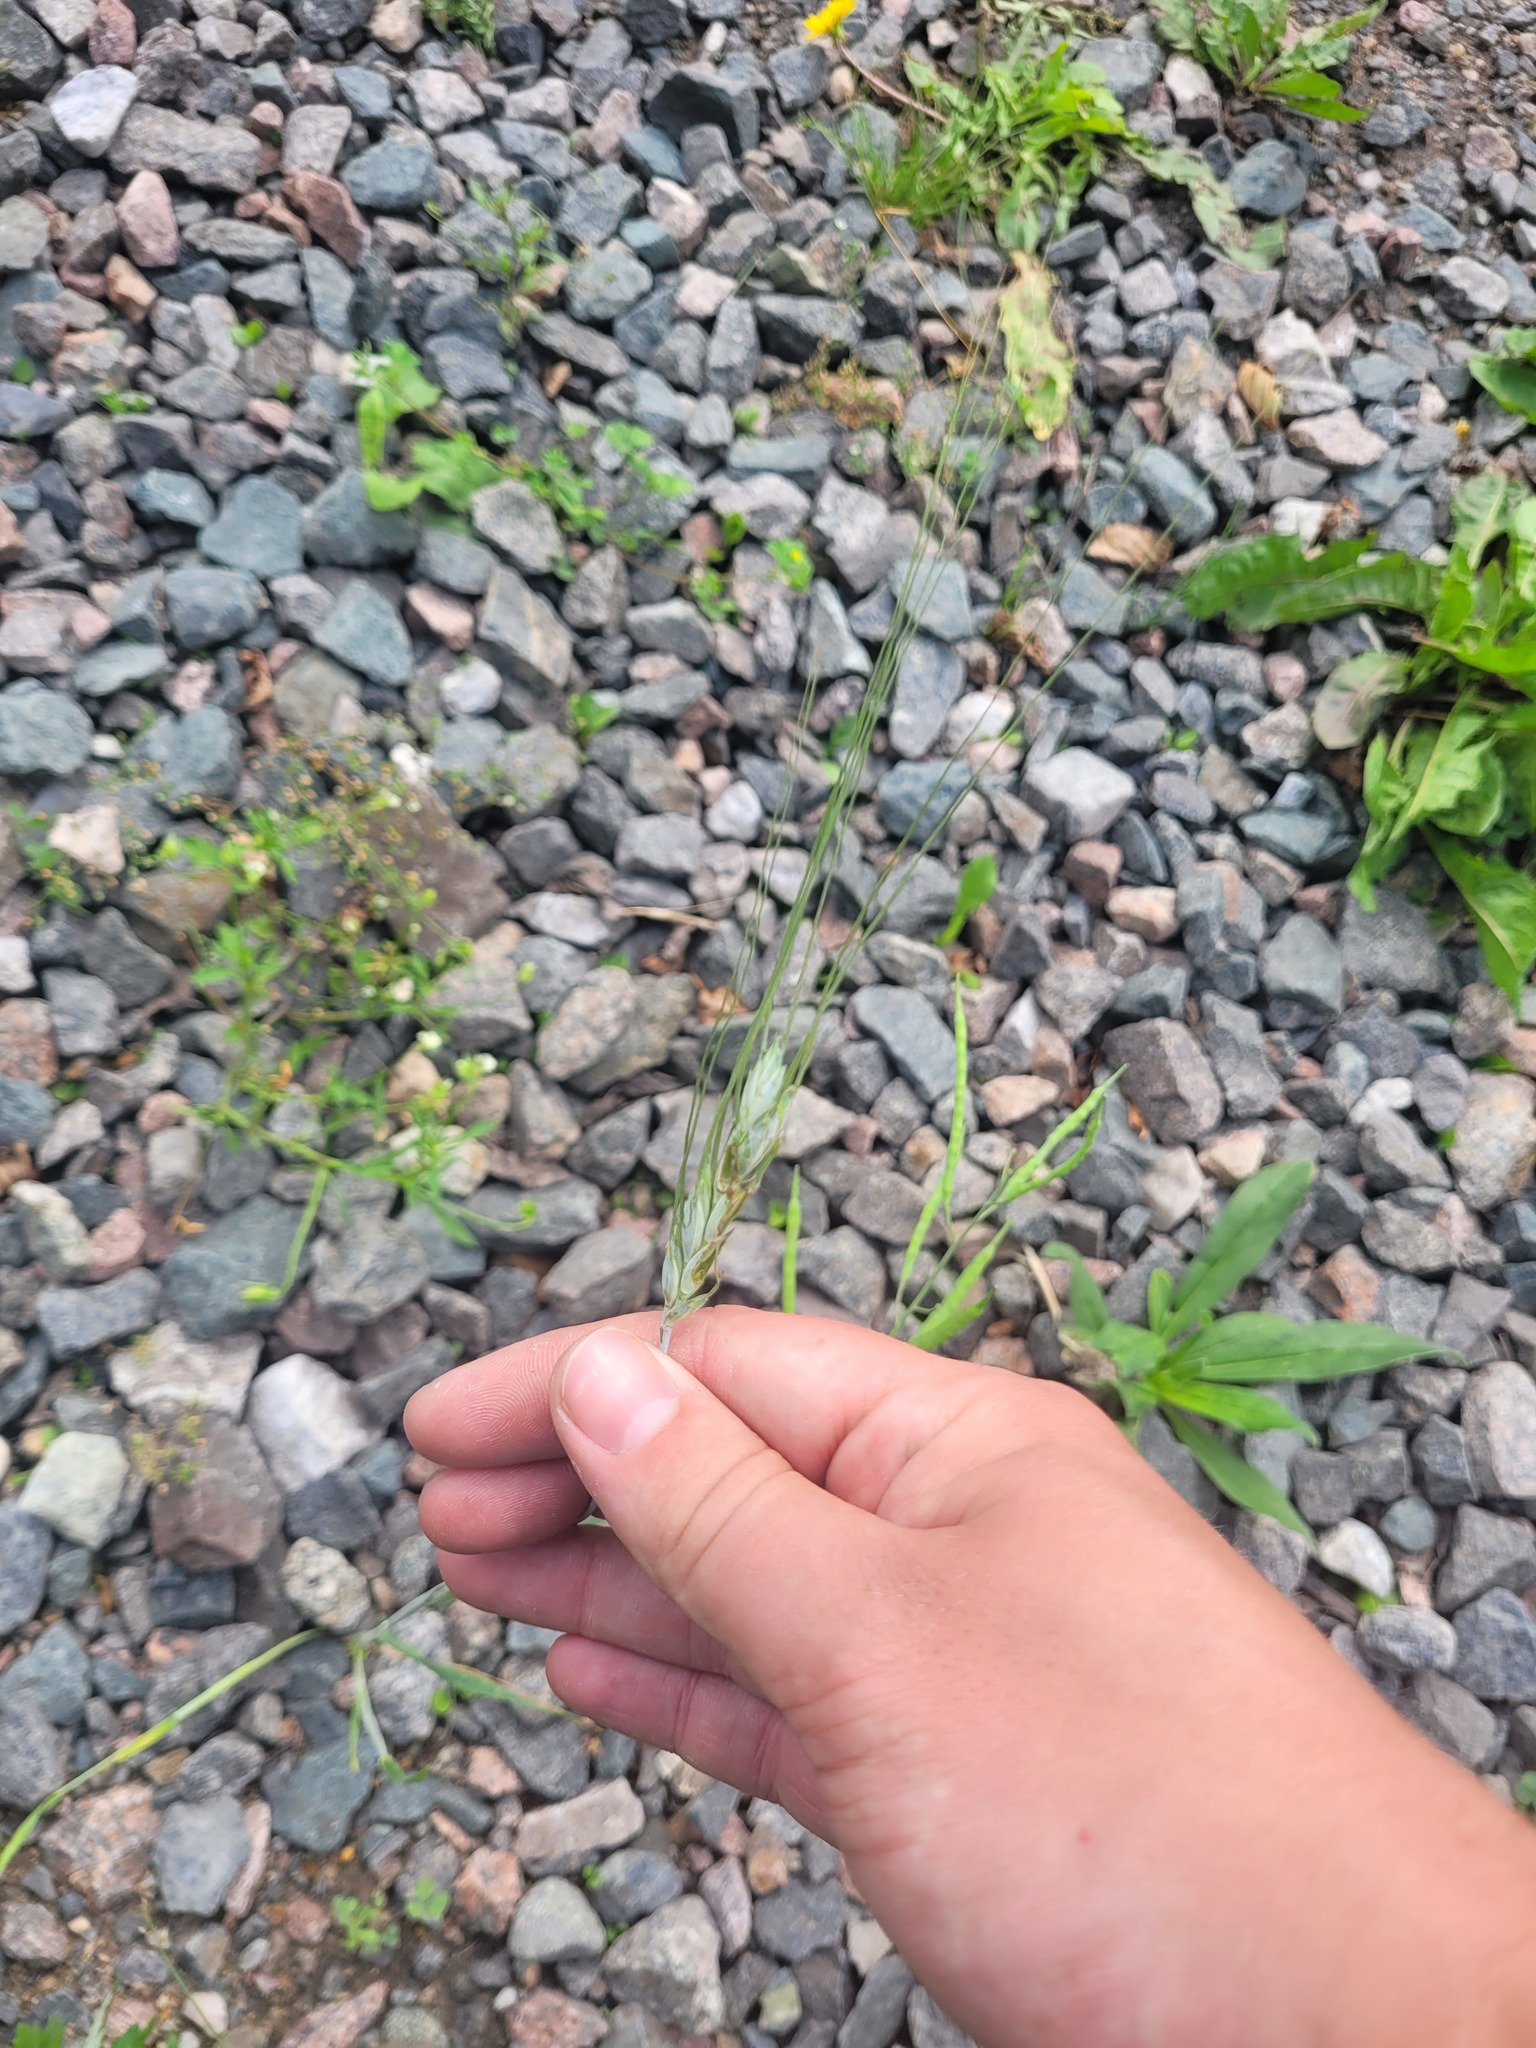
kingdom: Plantae
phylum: Tracheophyta
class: Liliopsida
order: Poales
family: Poaceae
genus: Triticum
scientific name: Triticum aestivum
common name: Common wheat
